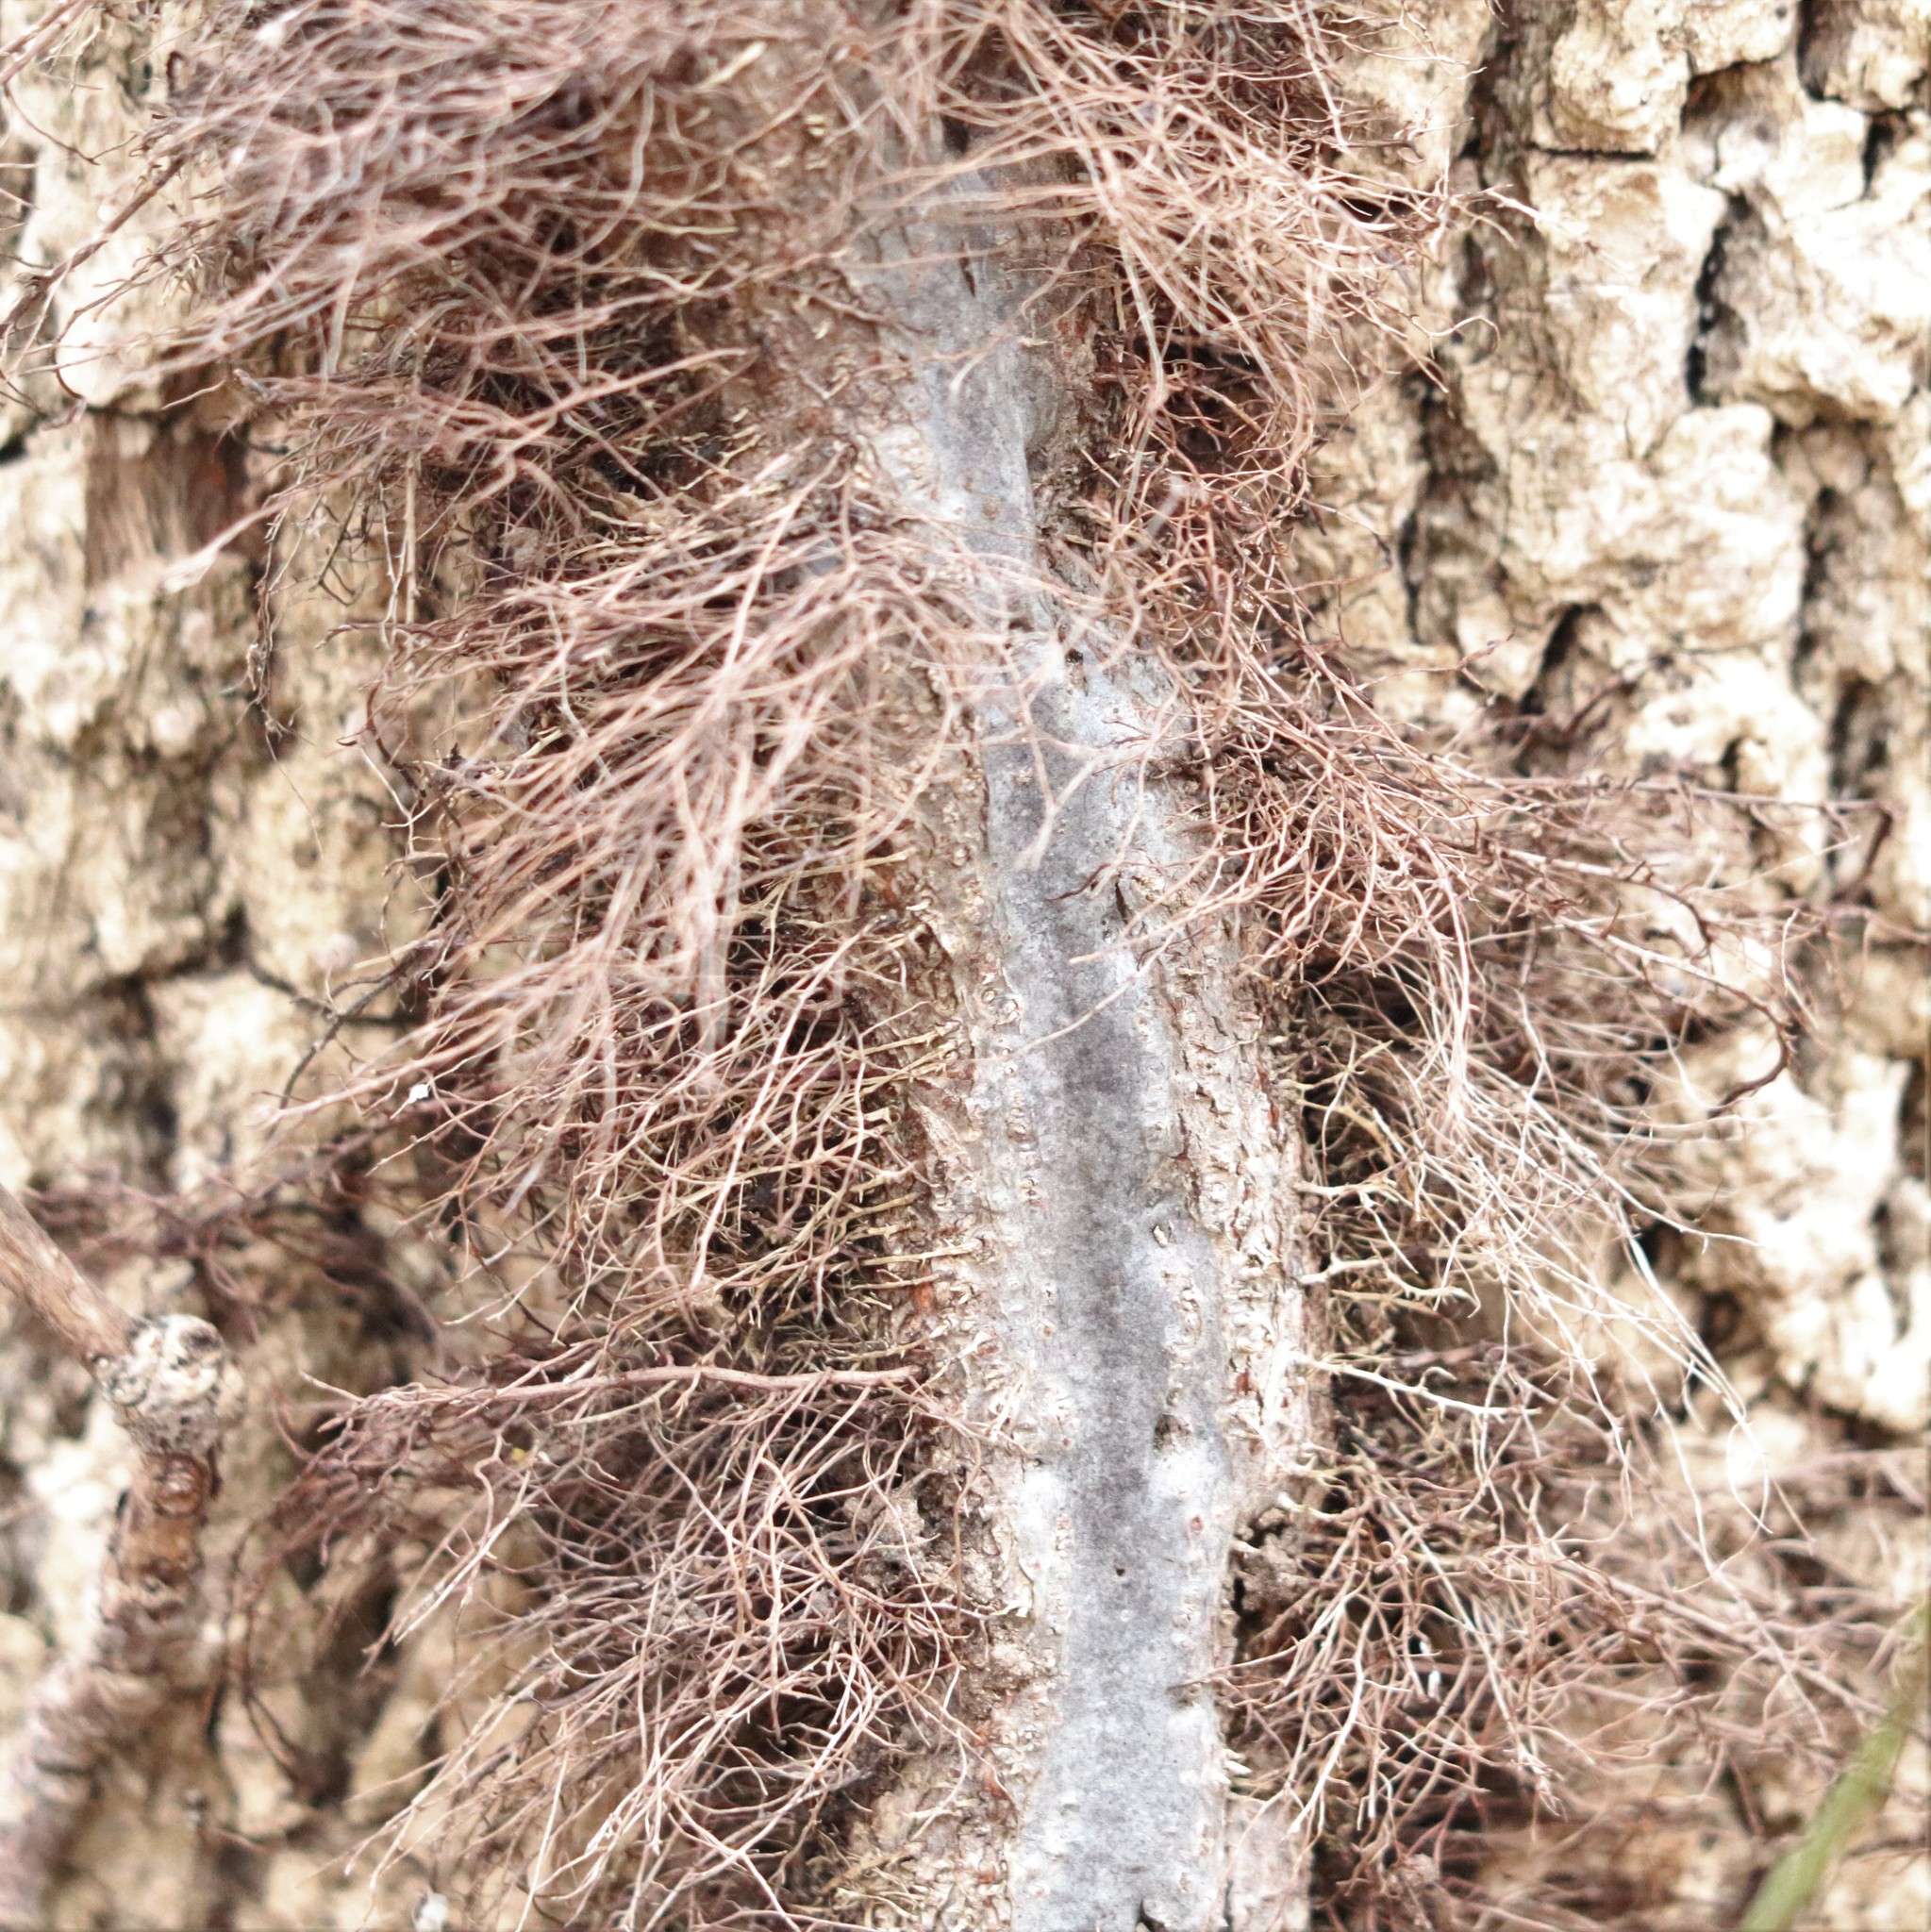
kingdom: Plantae
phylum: Tracheophyta
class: Magnoliopsida
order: Sapindales
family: Anacardiaceae
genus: Toxicodendron
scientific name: Toxicodendron radicans
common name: Poison ivy
